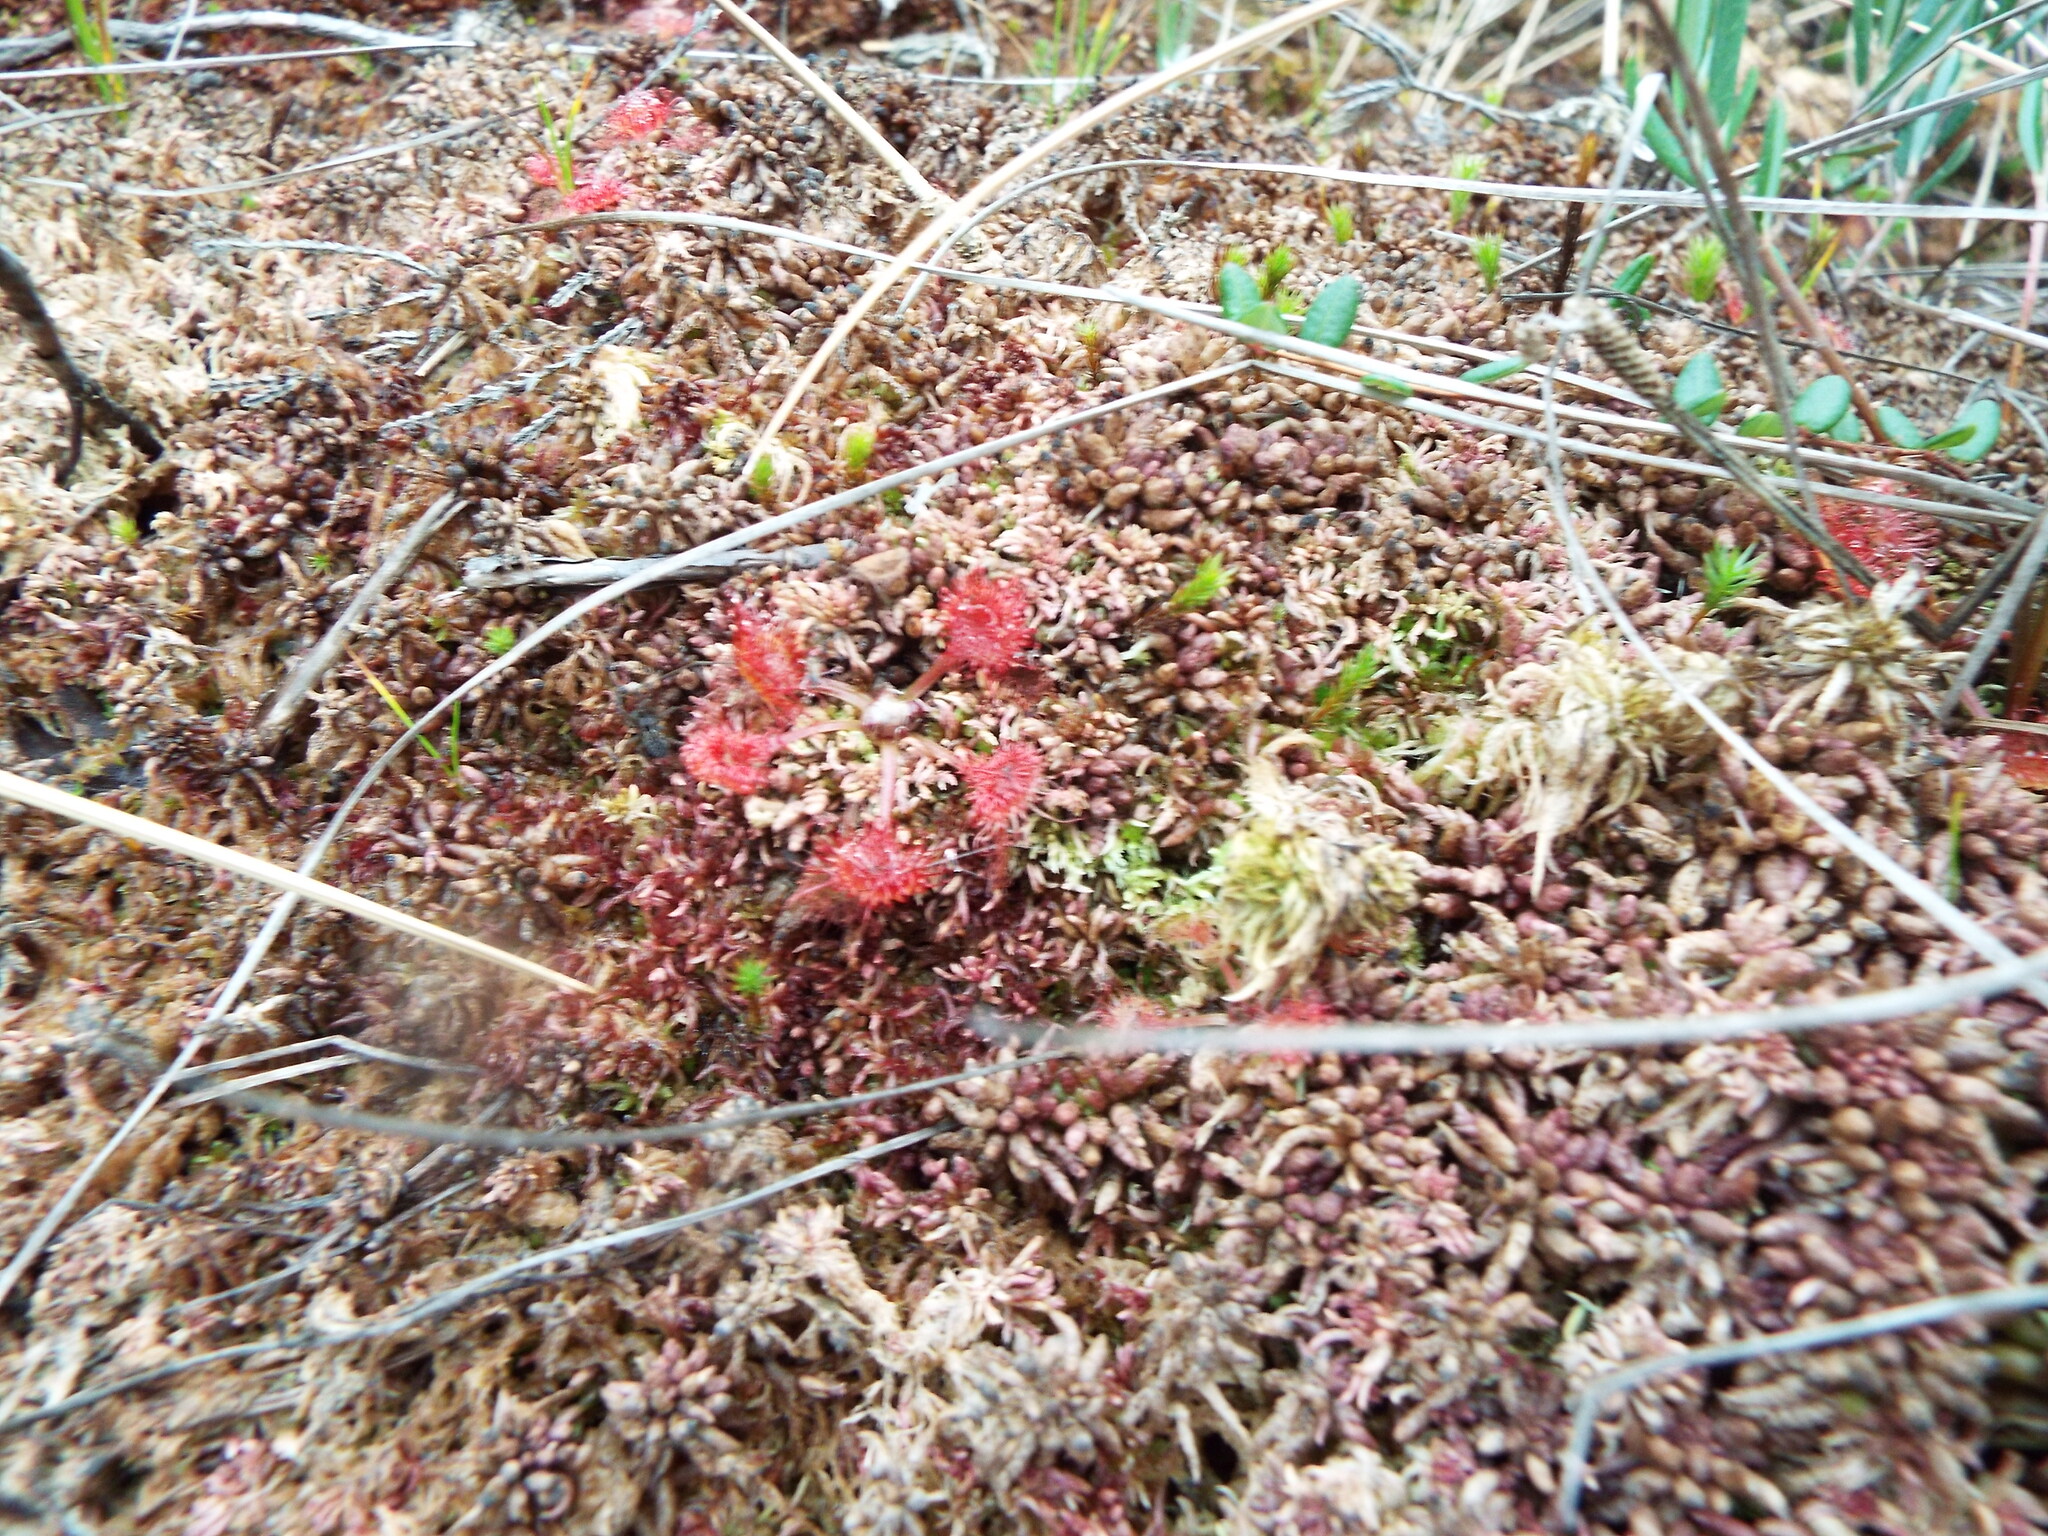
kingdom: Plantae
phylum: Tracheophyta
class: Magnoliopsida
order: Caryophyllales
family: Droseraceae
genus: Drosera
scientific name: Drosera rotundifolia
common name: Round-leaved sundew
